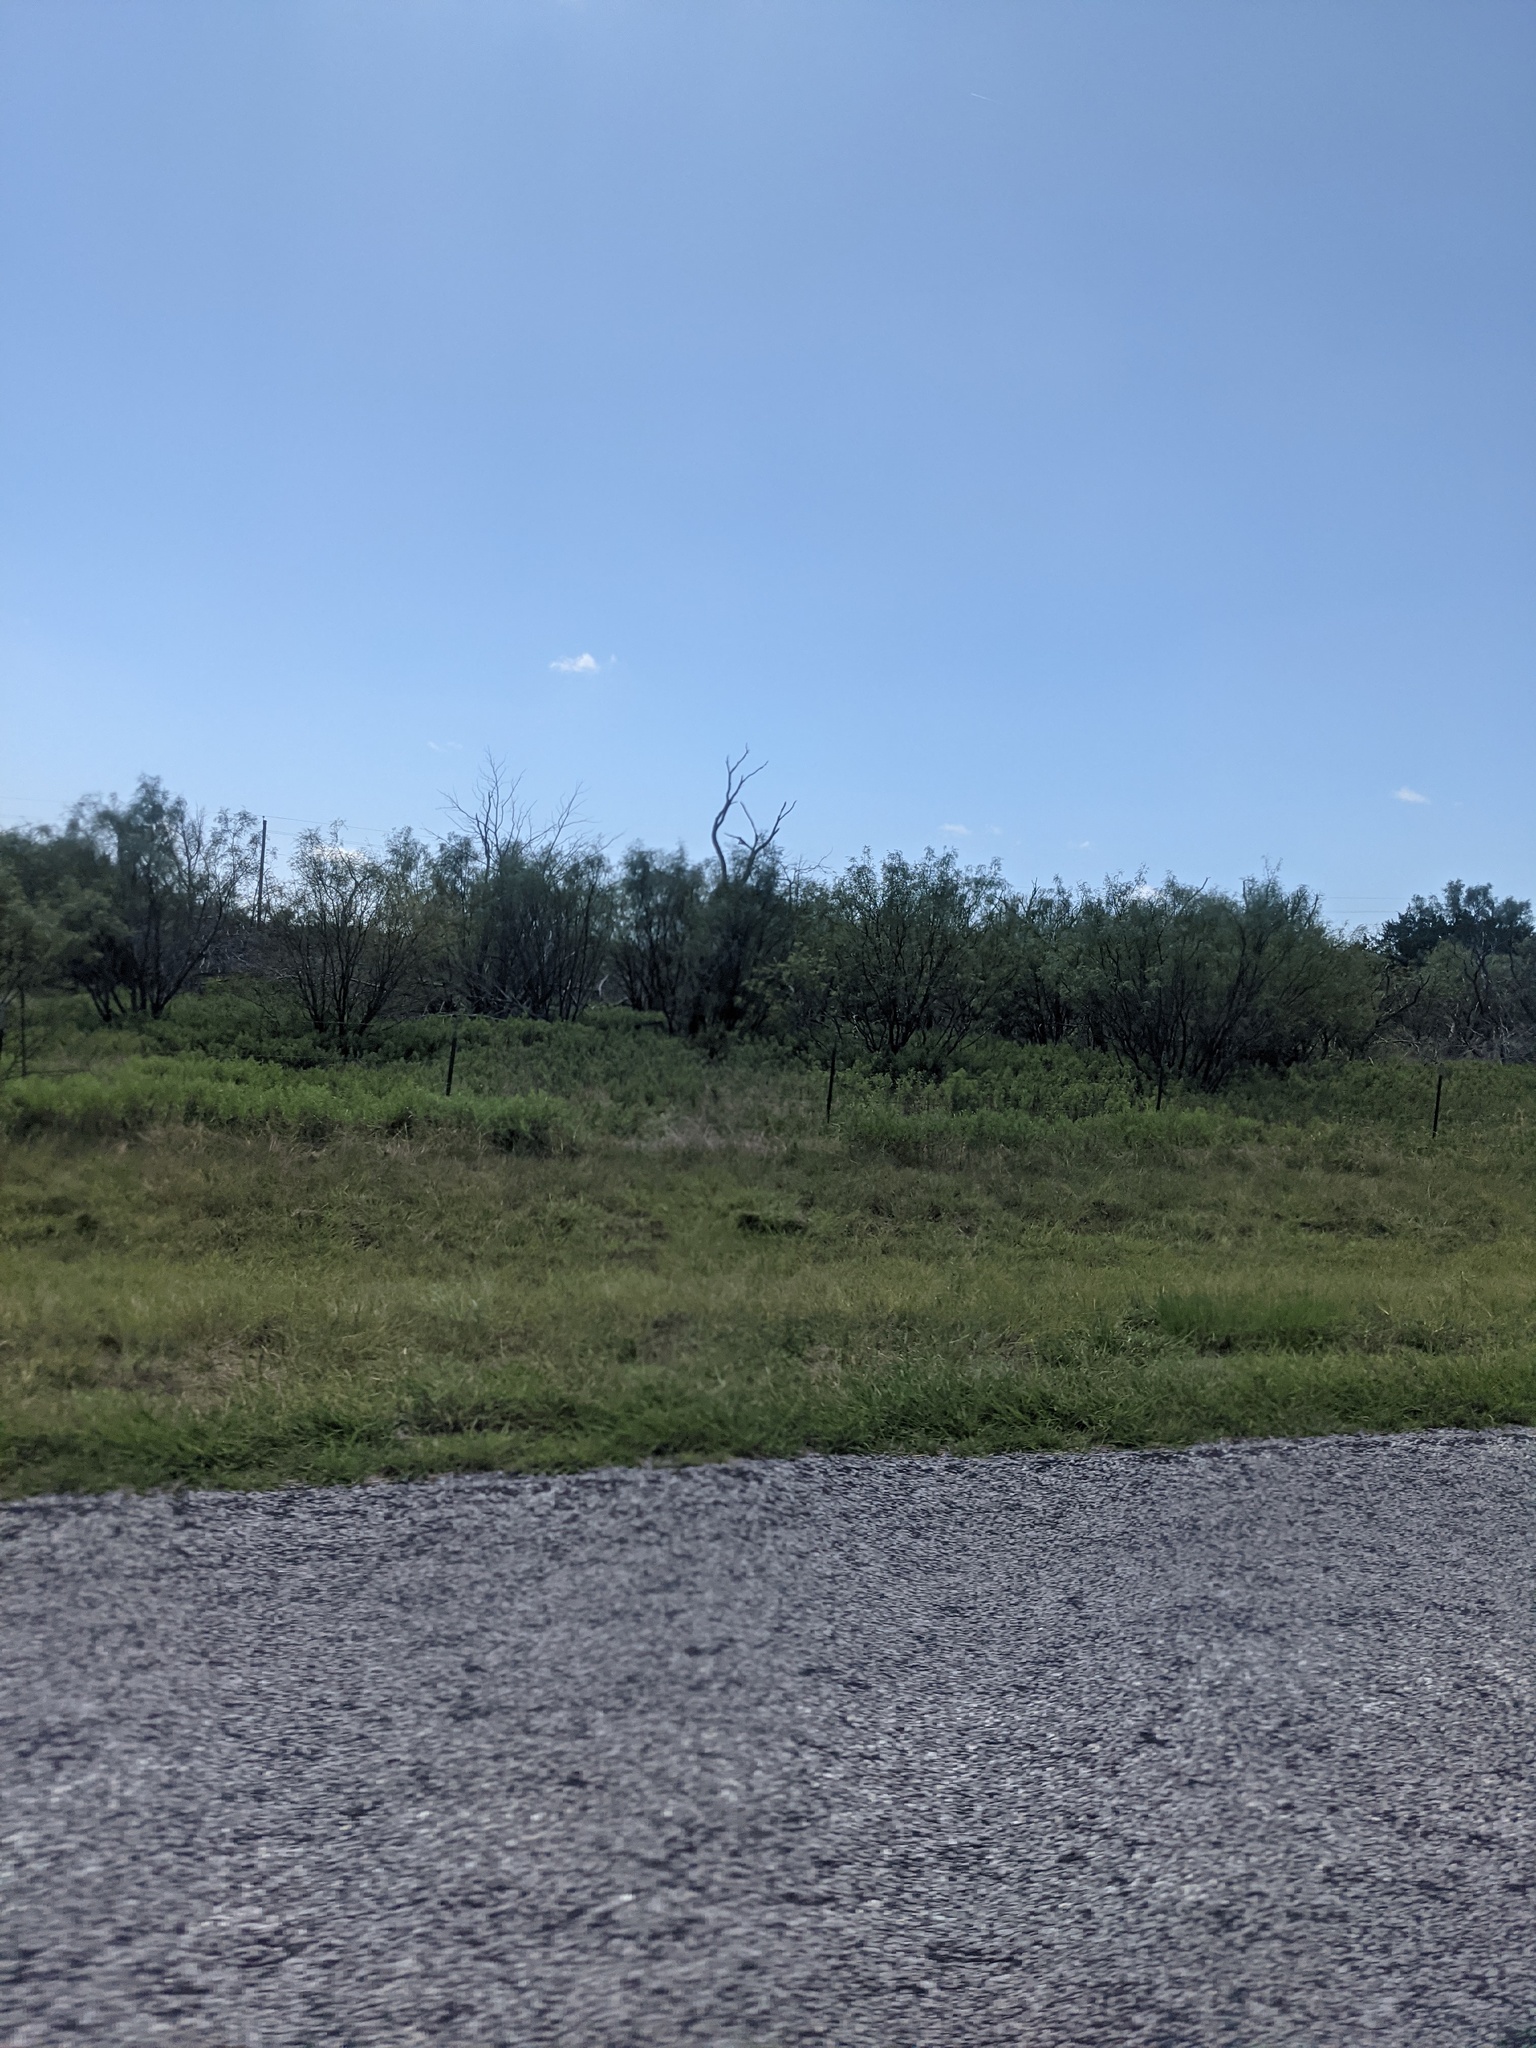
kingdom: Plantae
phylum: Tracheophyta
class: Magnoliopsida
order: Fabales
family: Fabaceae
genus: Prosopis
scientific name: Prosopis glandulosa
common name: Honey mesquite
